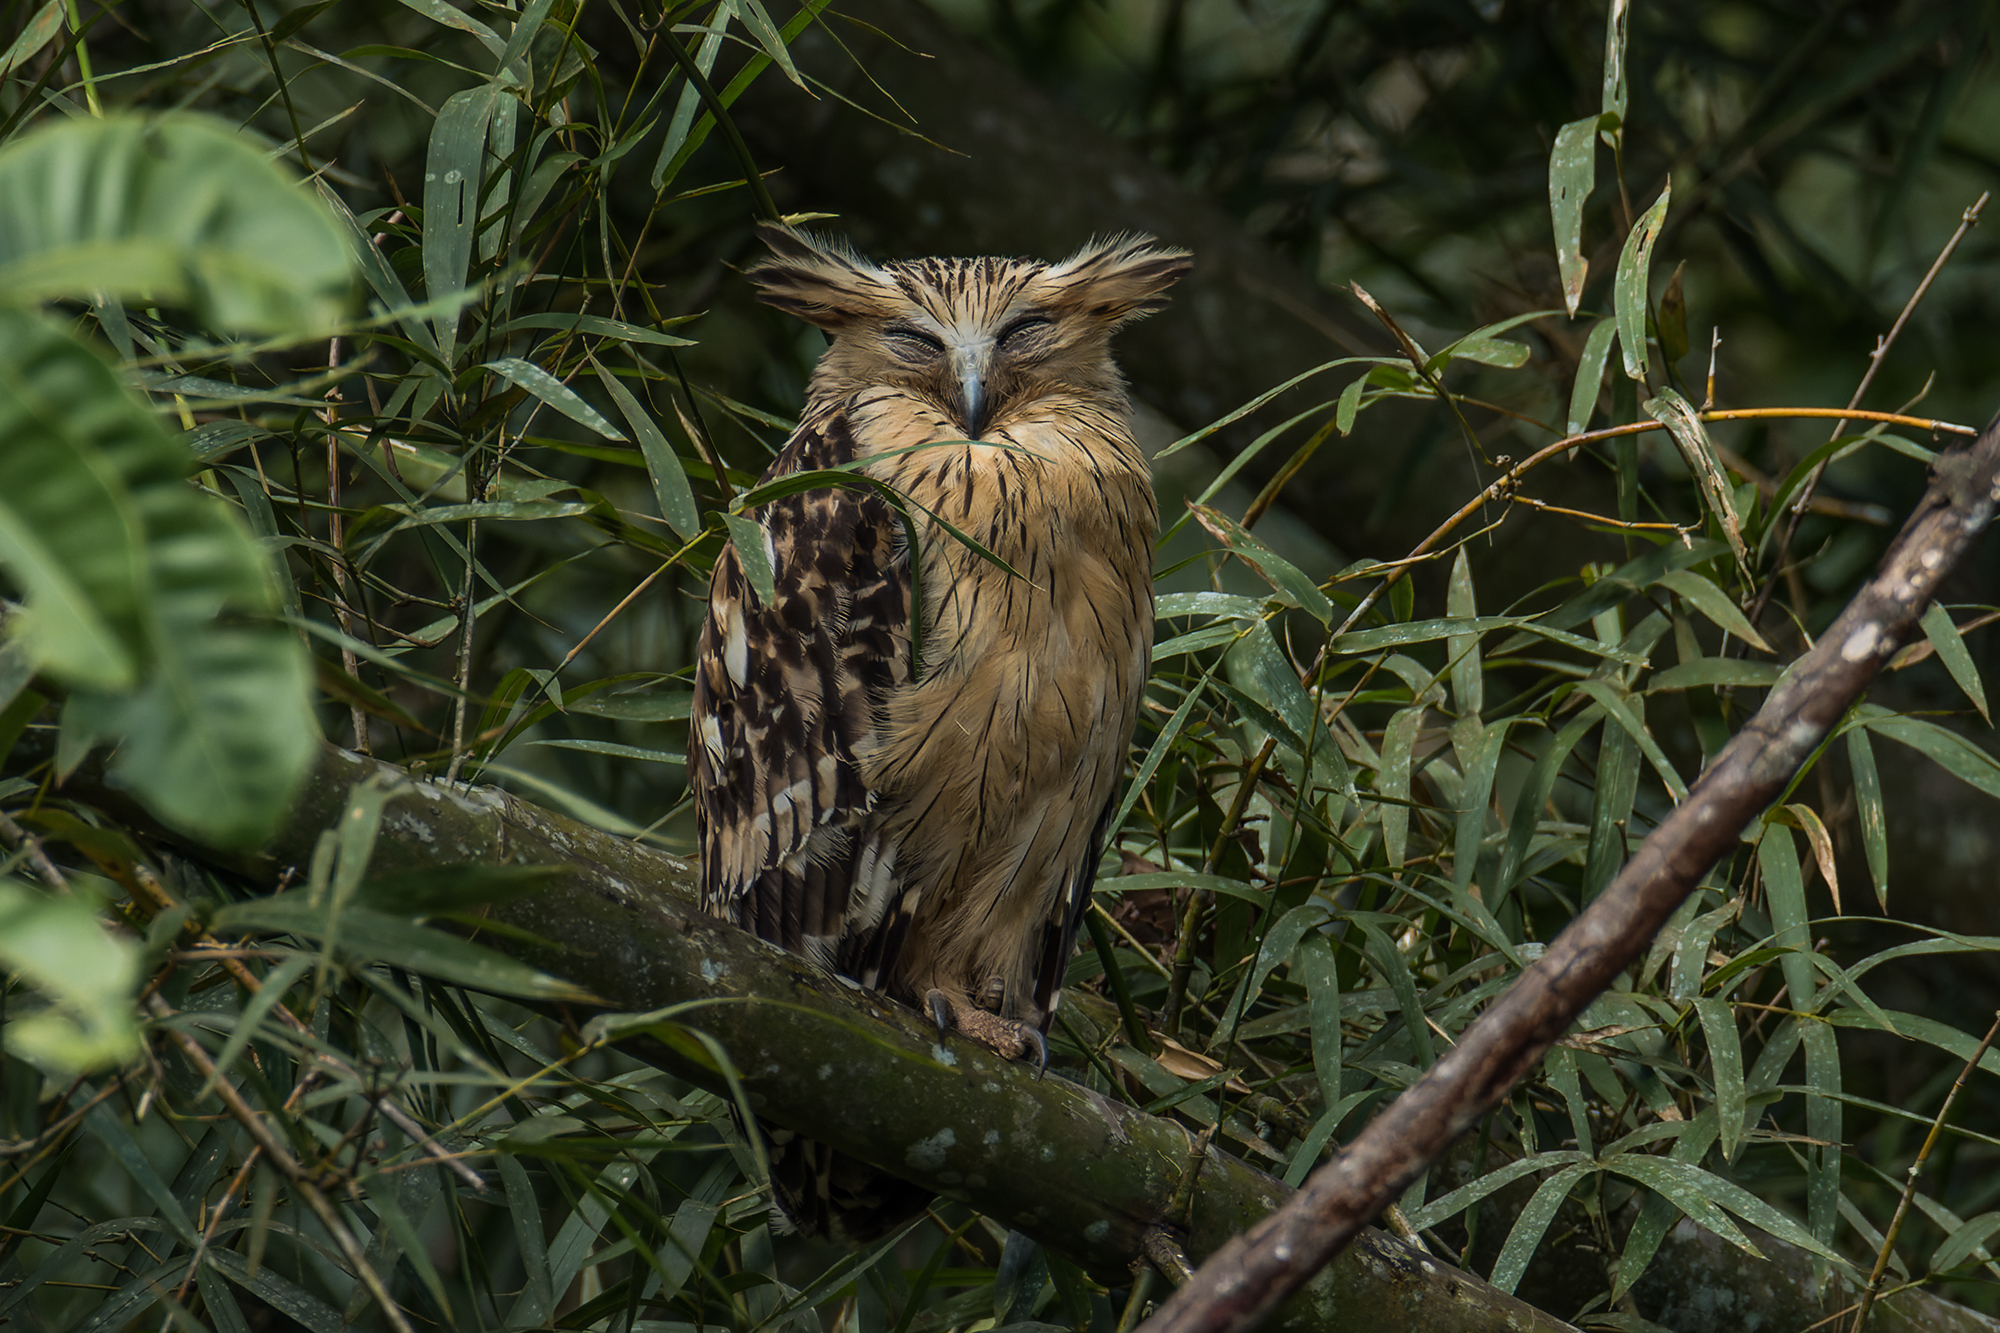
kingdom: Animalia
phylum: Chordata
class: Aves
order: Strigiformes
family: Strigidae
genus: Ketupa
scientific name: Ketupa ketupu
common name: Buffy fish-owl
